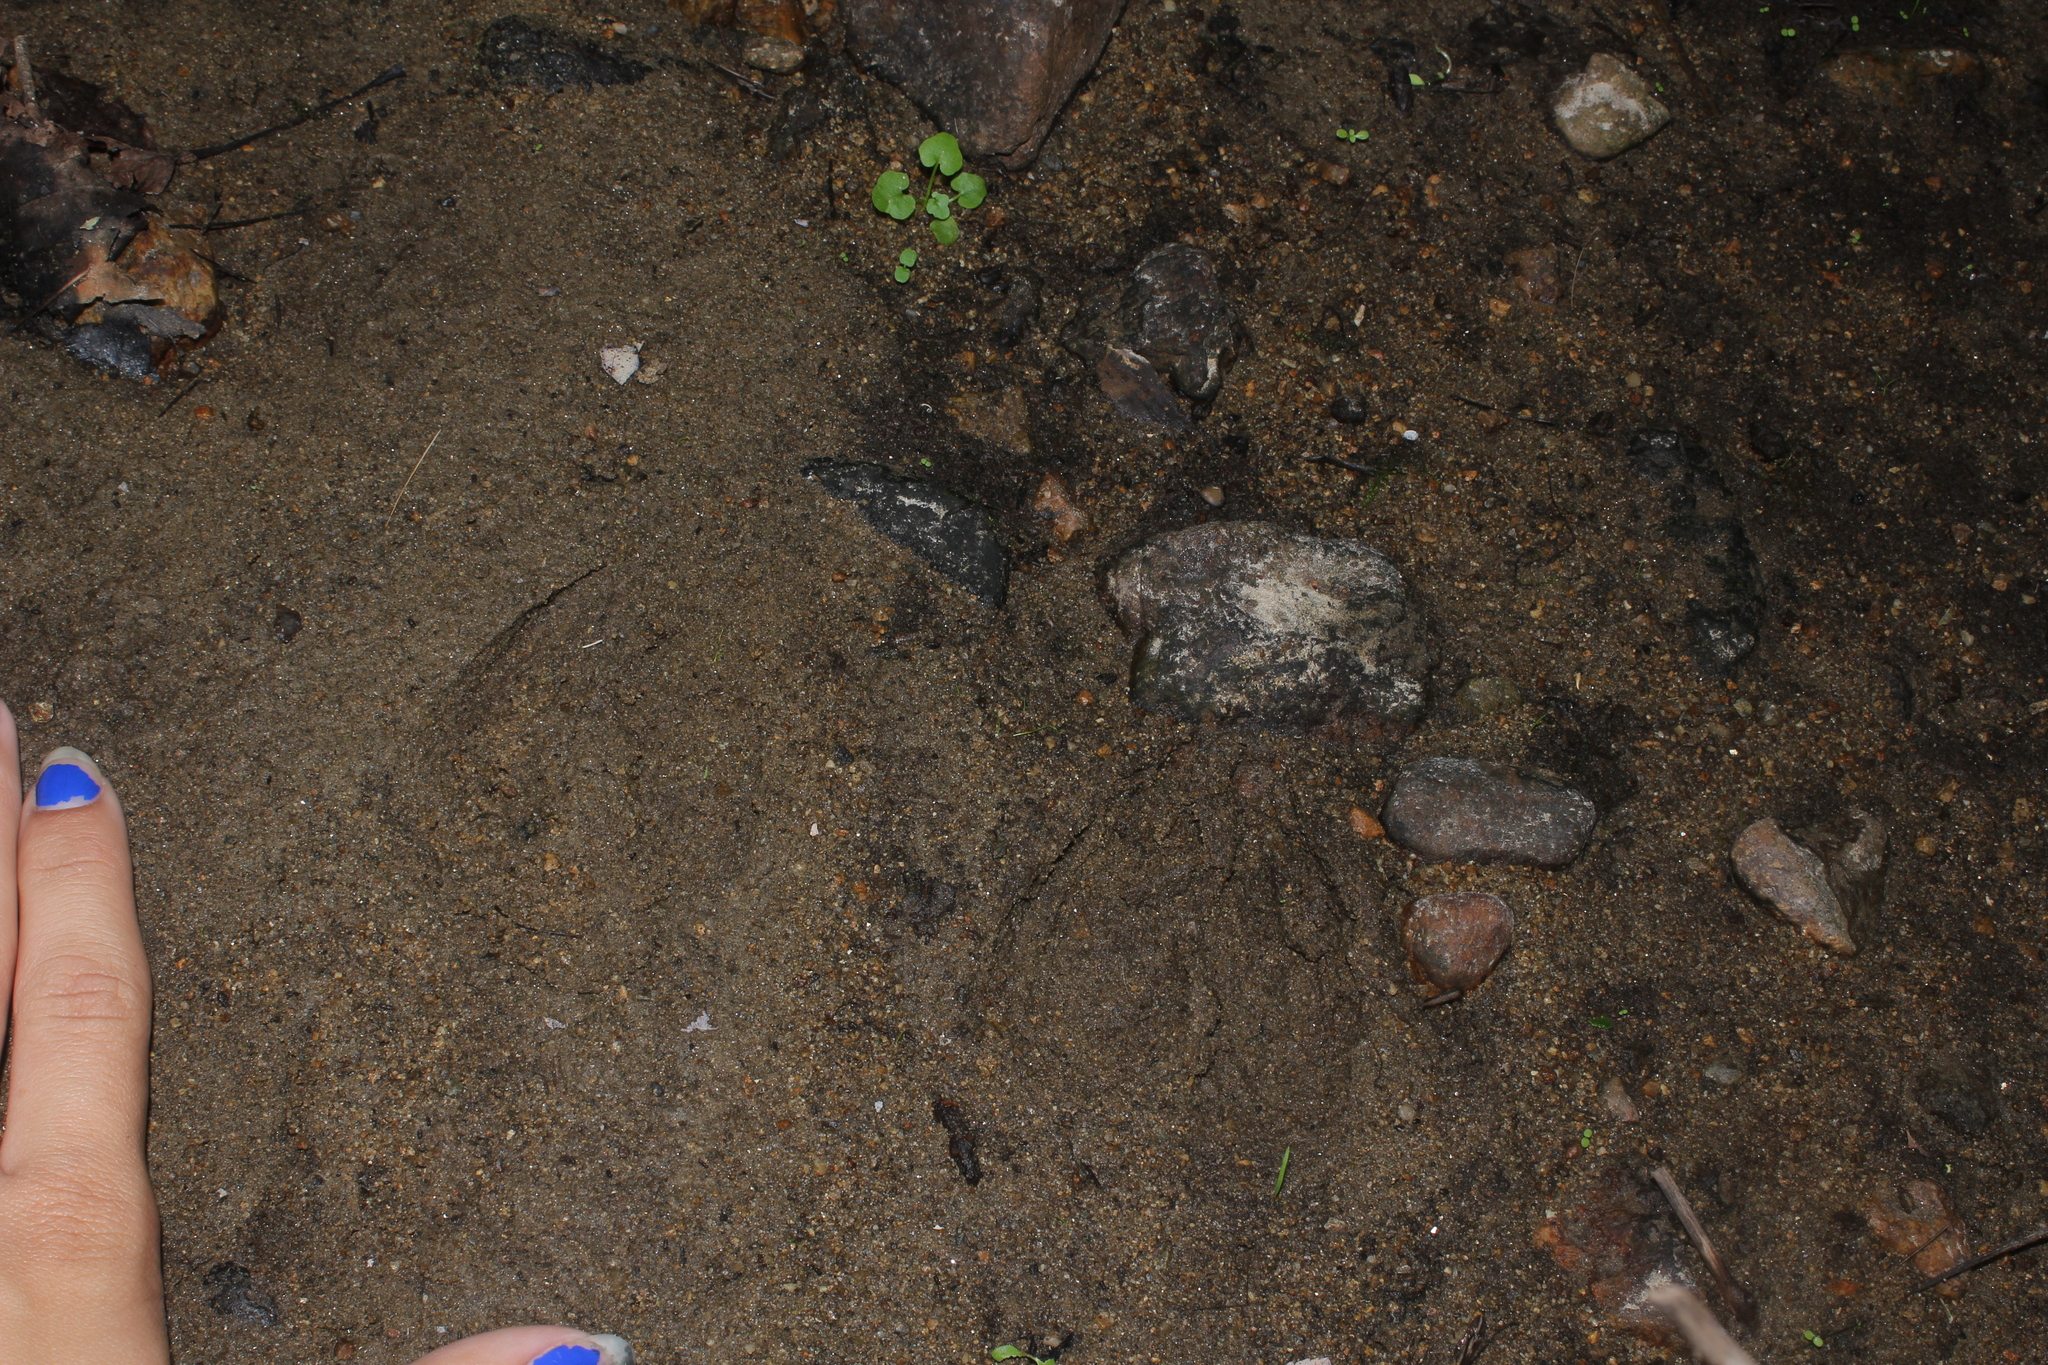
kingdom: Animalia
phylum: Chordata
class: Mammalia
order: Artiodactyla
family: Cervidae
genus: Odocoileus
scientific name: Odocoileus virginianus
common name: White-tailed deer
